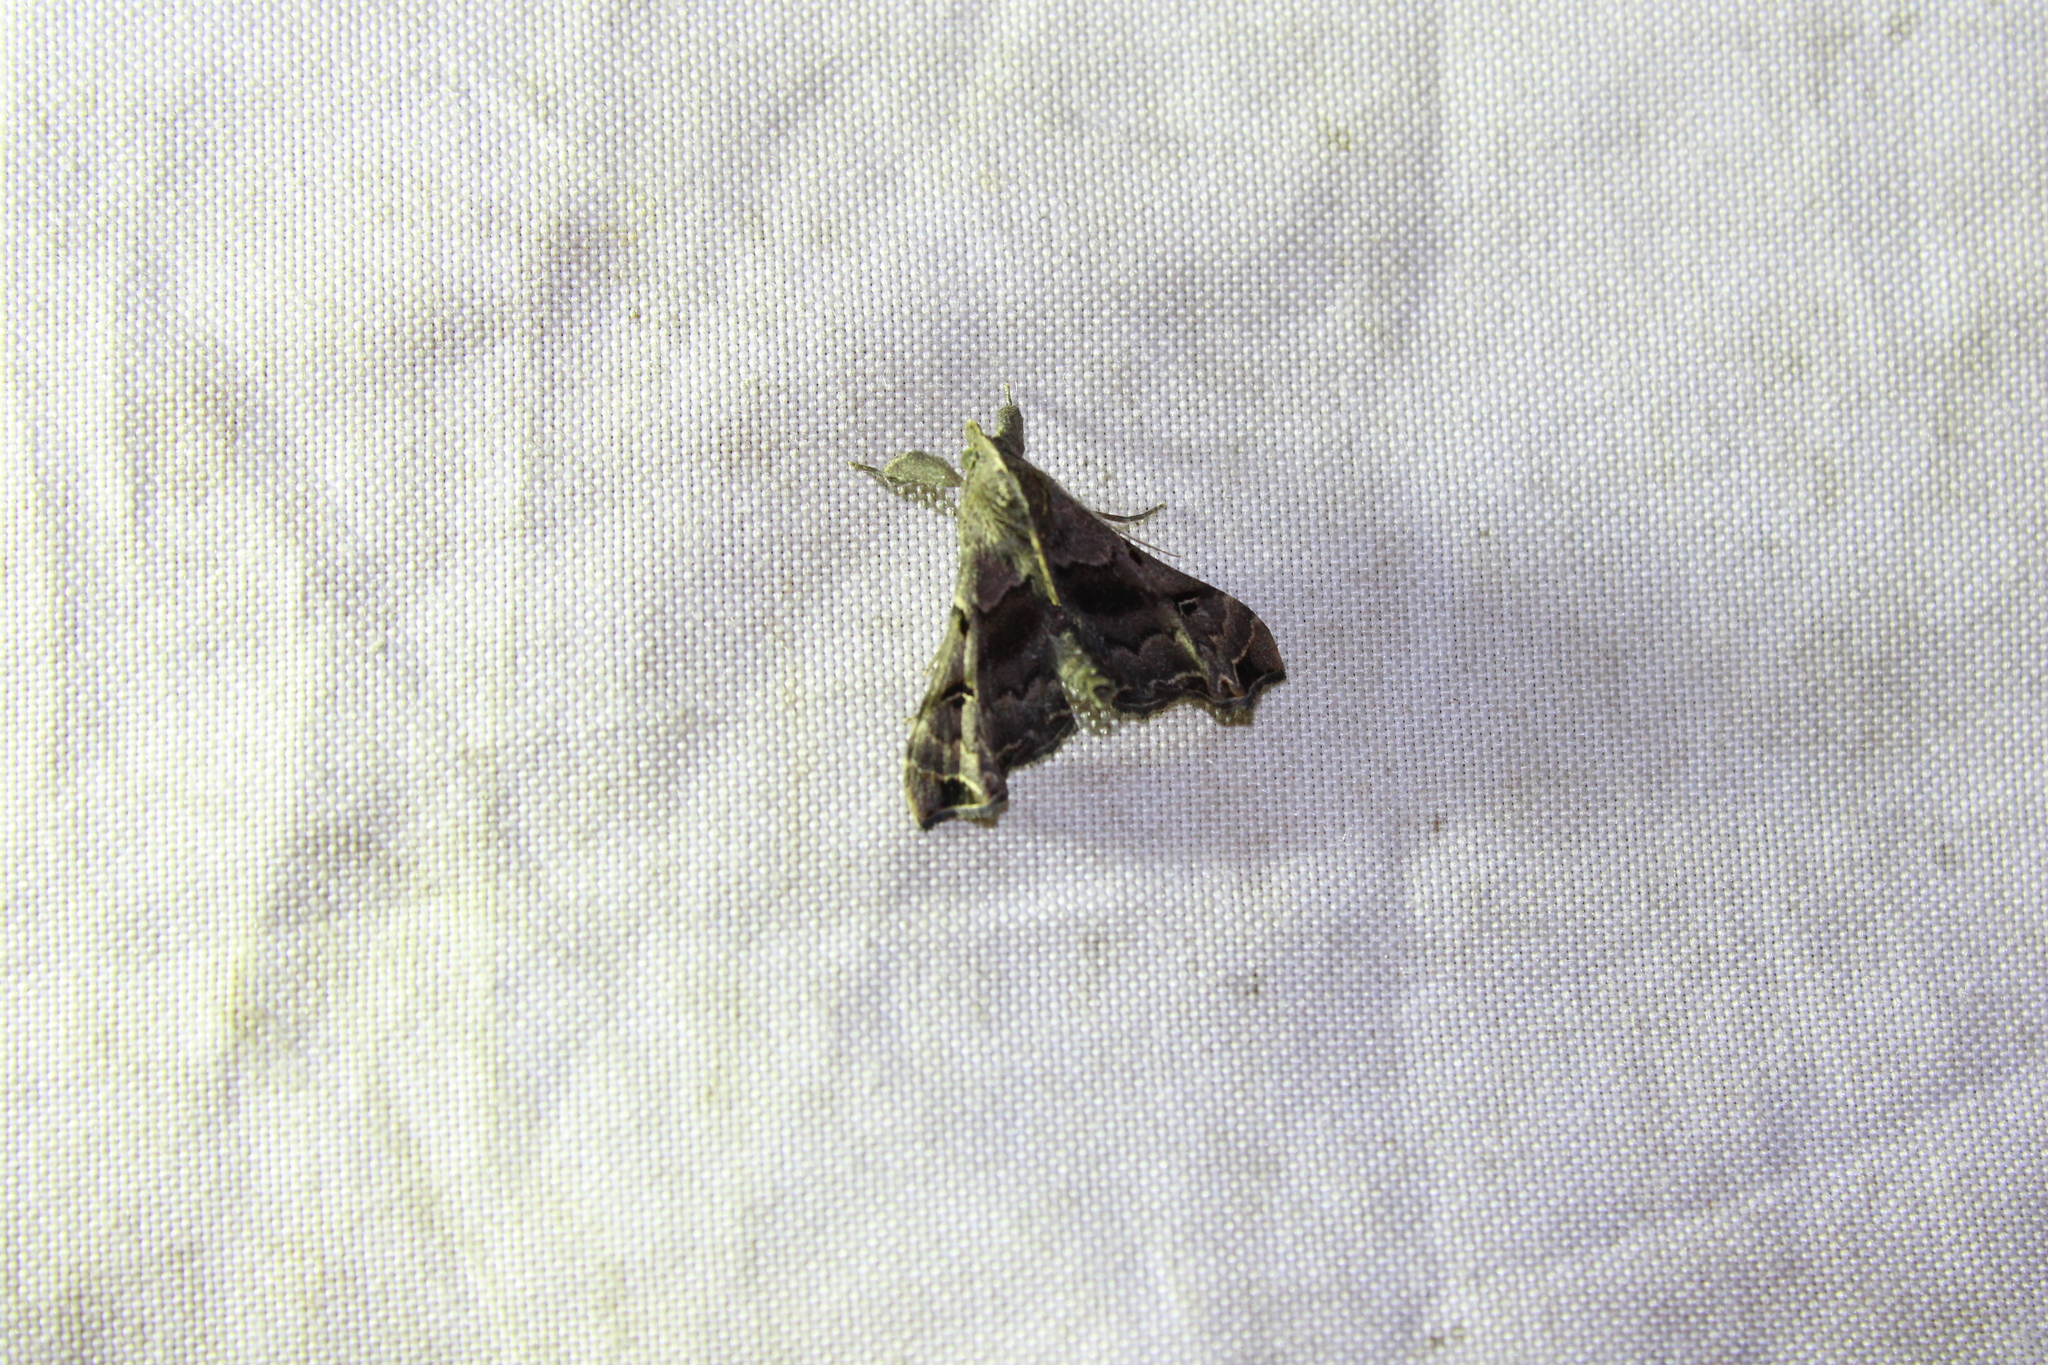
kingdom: Animalia
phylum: Arthropoda
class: Insecta
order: Lepidoptera
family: Erebidae
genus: Palthis
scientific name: Palthis asopialis
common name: Faint-spotted palthis moth
